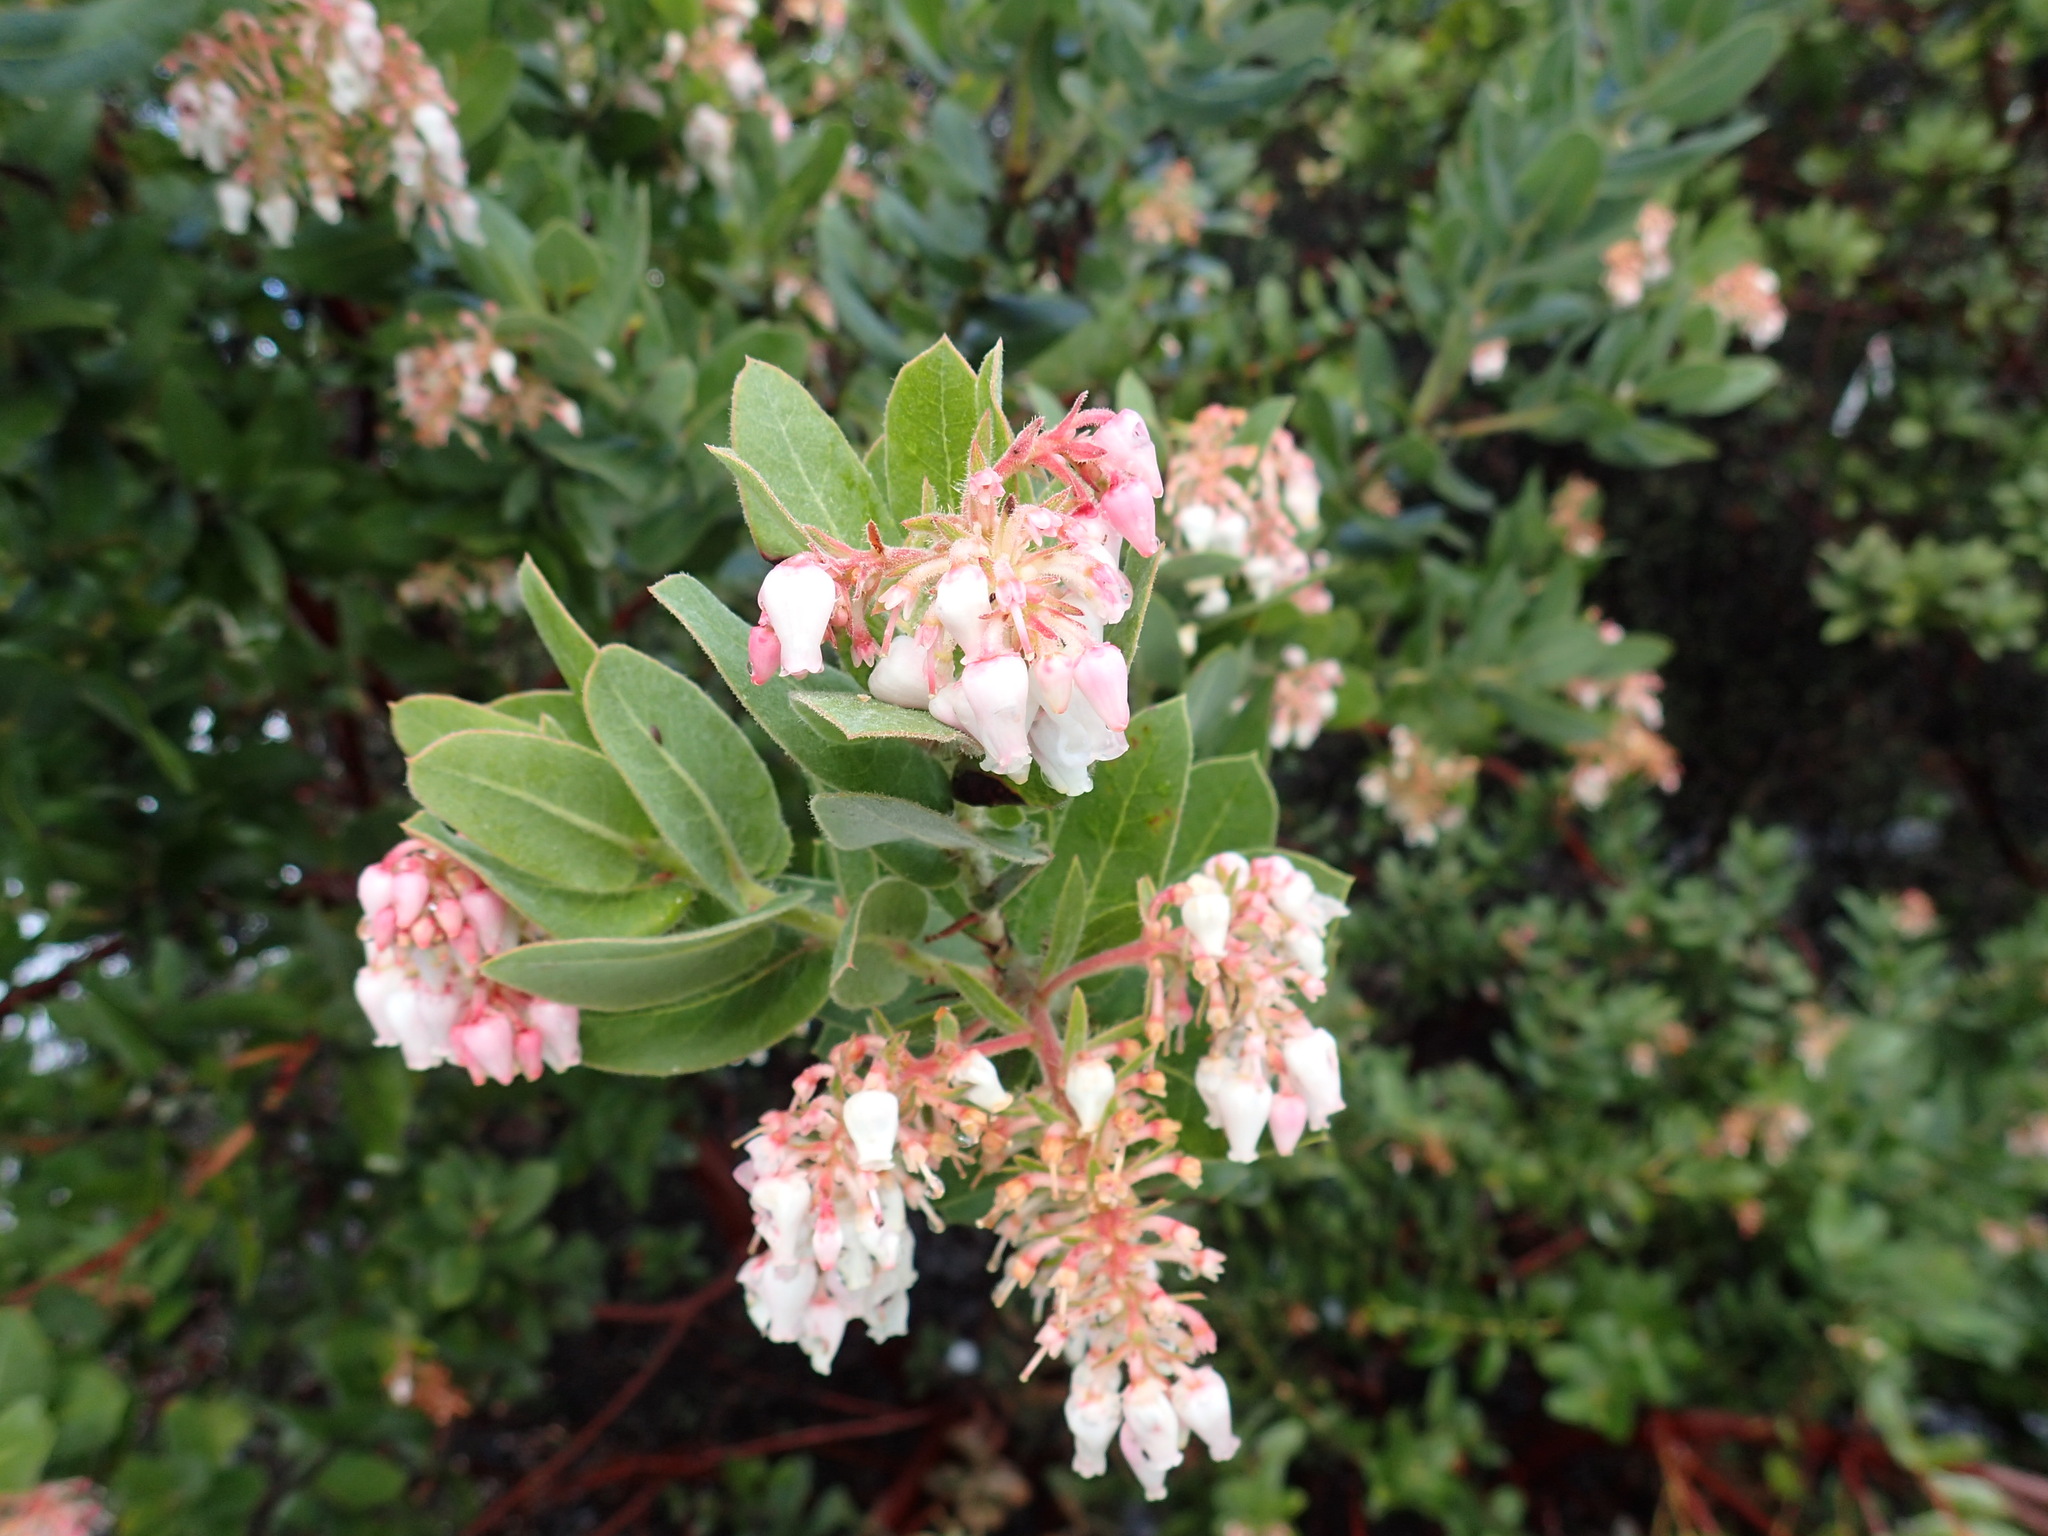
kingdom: Plantae
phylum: Tracheophyta
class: Magnoliopsida
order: Ericales
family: Ericaceae
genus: Arctostaphylos
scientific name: Arctostaphylos regismontana
